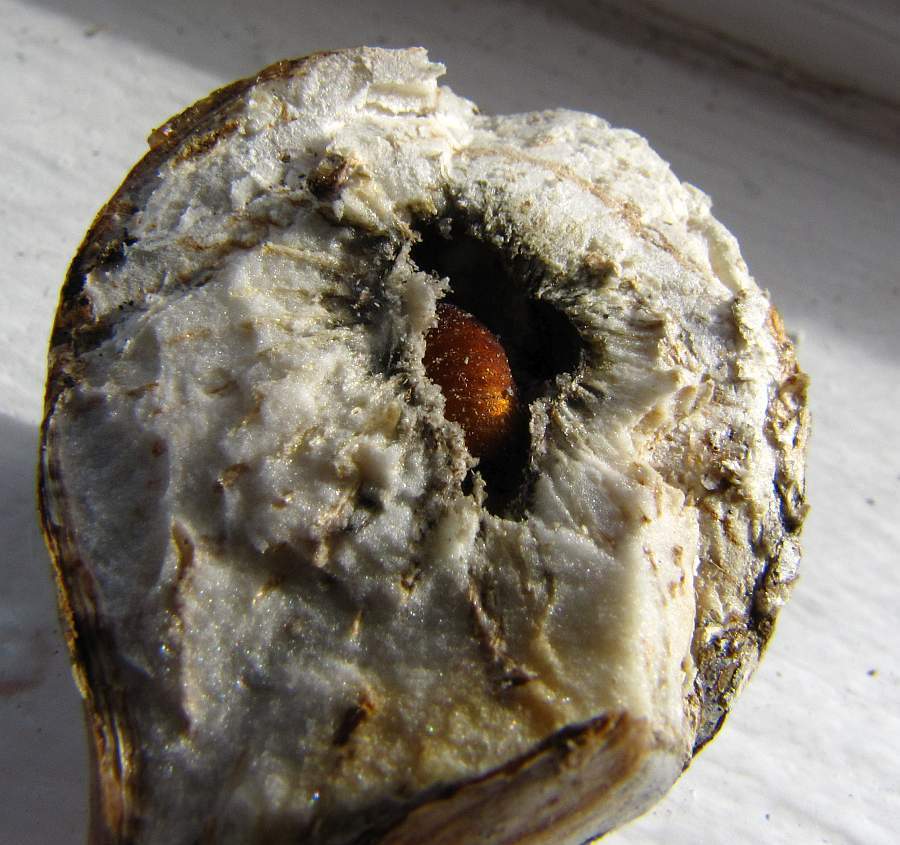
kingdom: Animalia
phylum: Arthropoda
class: Insecta
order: Diptera
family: Tephritidae
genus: Eurosta
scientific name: Eurosta solidaginis
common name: Goldenrod gall fly
